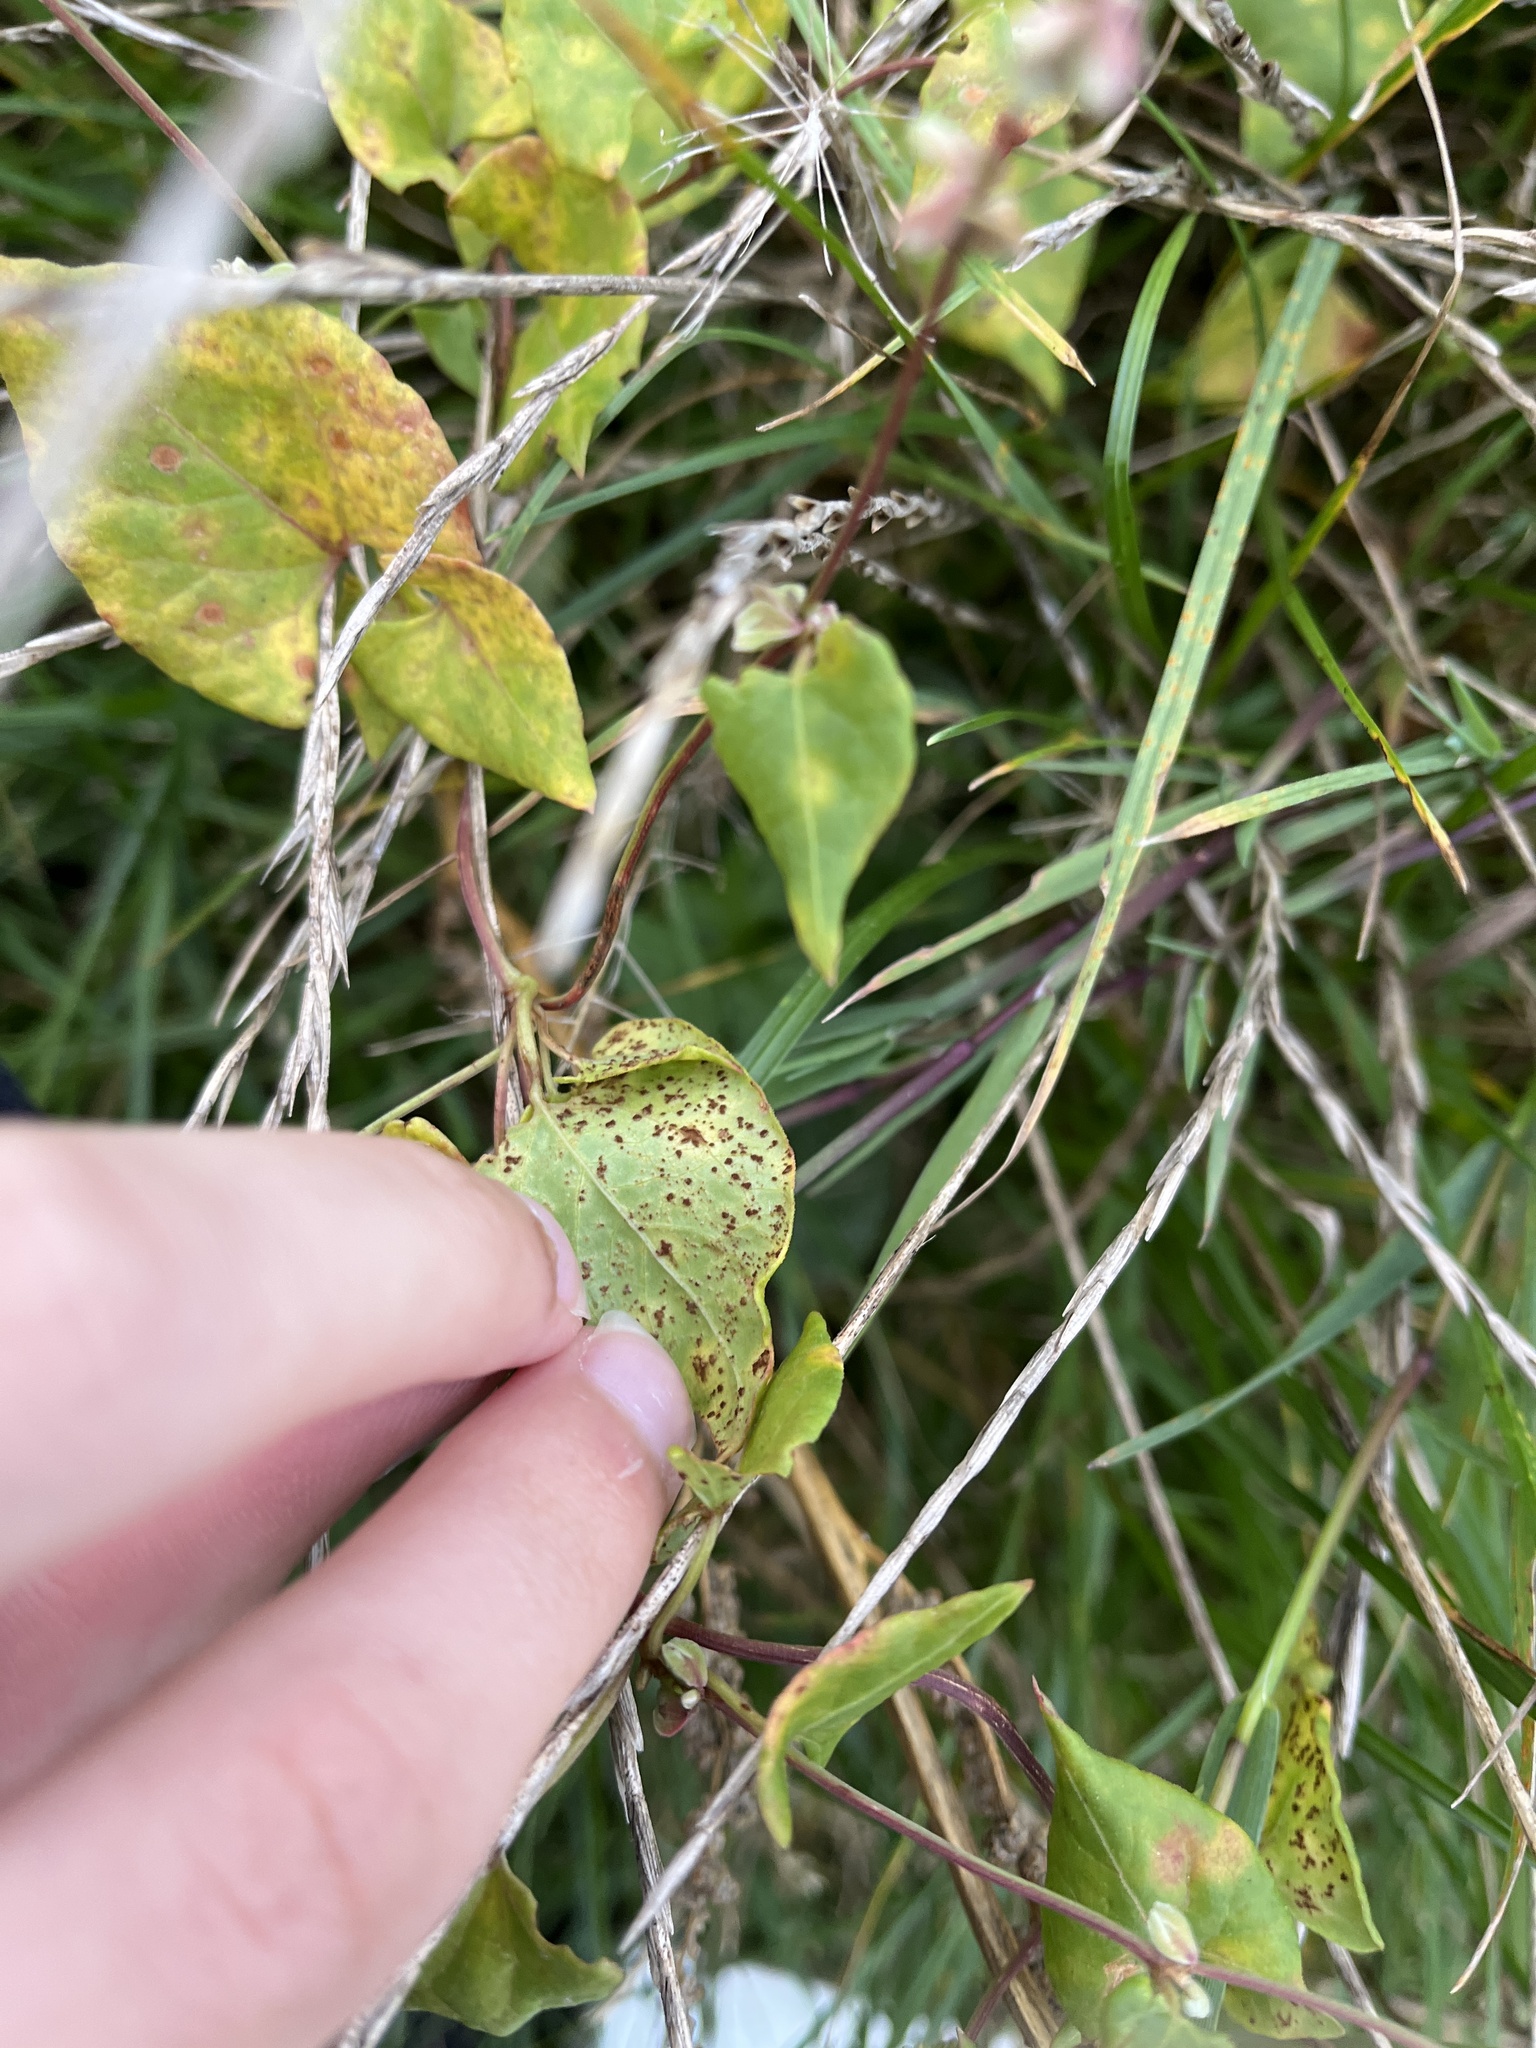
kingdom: Fungi
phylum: Basidiomycota
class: Pucciniomycetes
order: Pucciniales
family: Pucciniaceae
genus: Puccinia
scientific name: Puccinia polygoni
